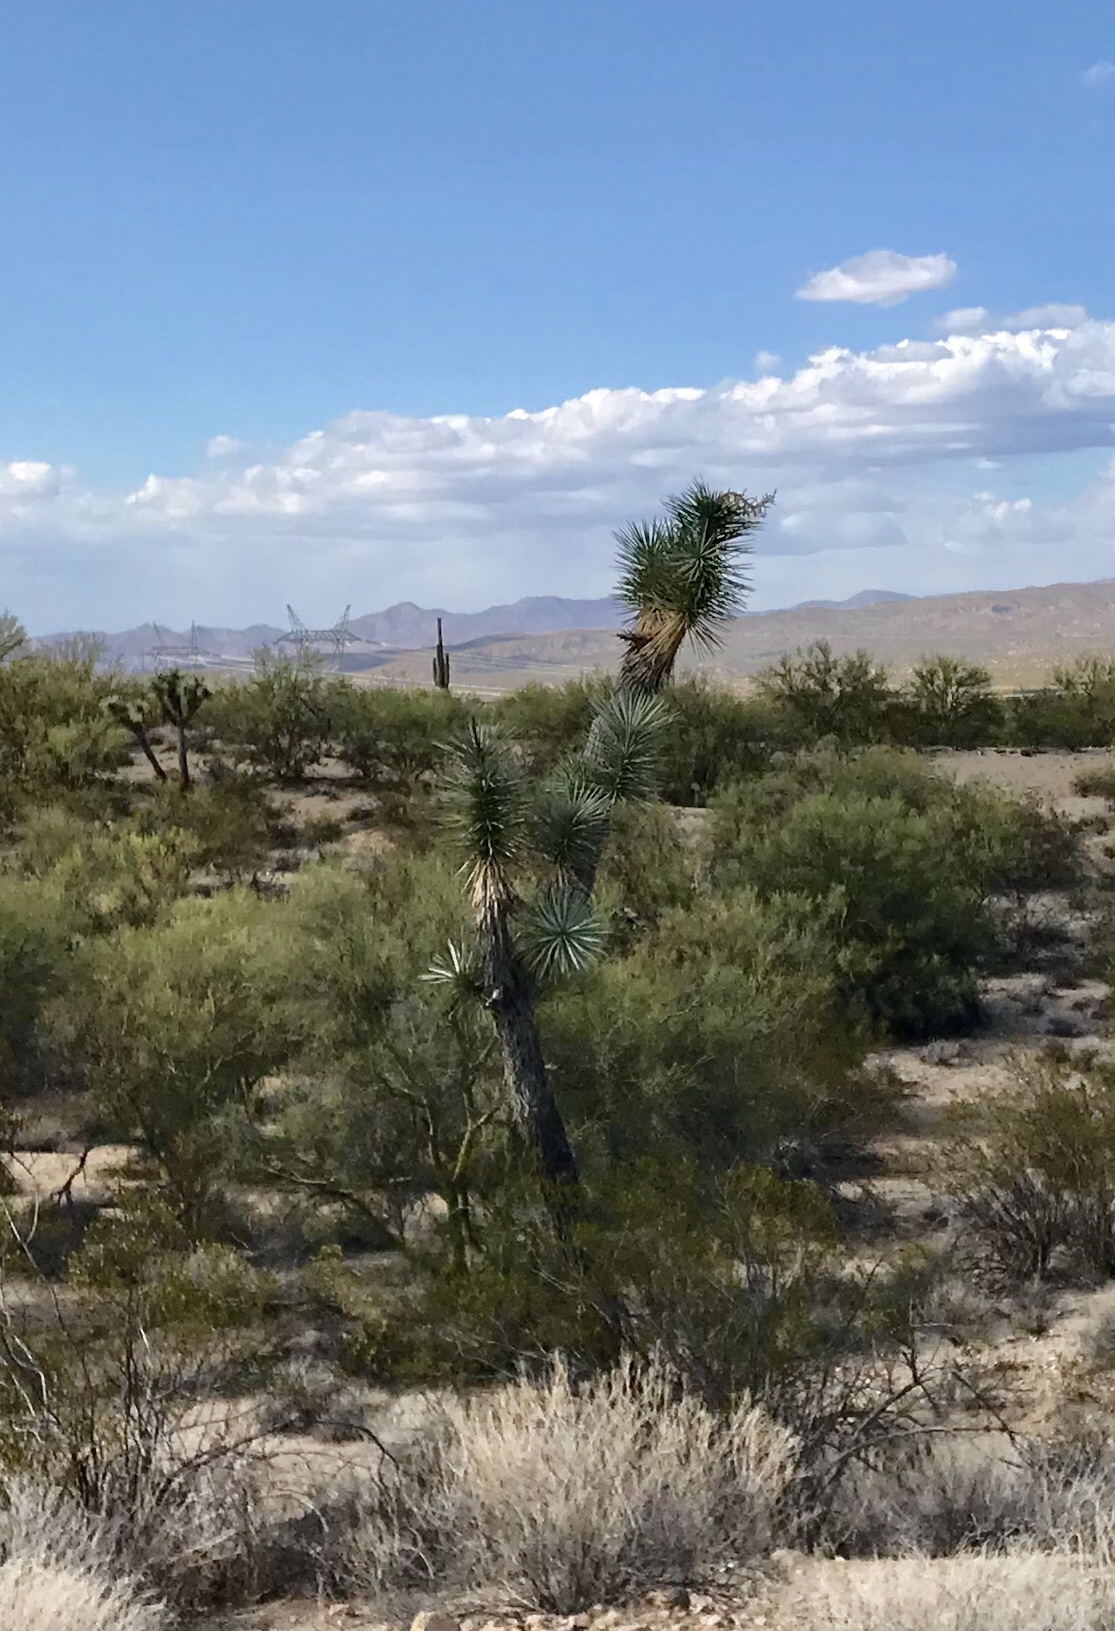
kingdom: Plantae
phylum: Tracheophyta
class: Liliopsida
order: Asparagales
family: Asparagaceae
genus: Yucca
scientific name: Yucca brevifolia
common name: Joshua tree
